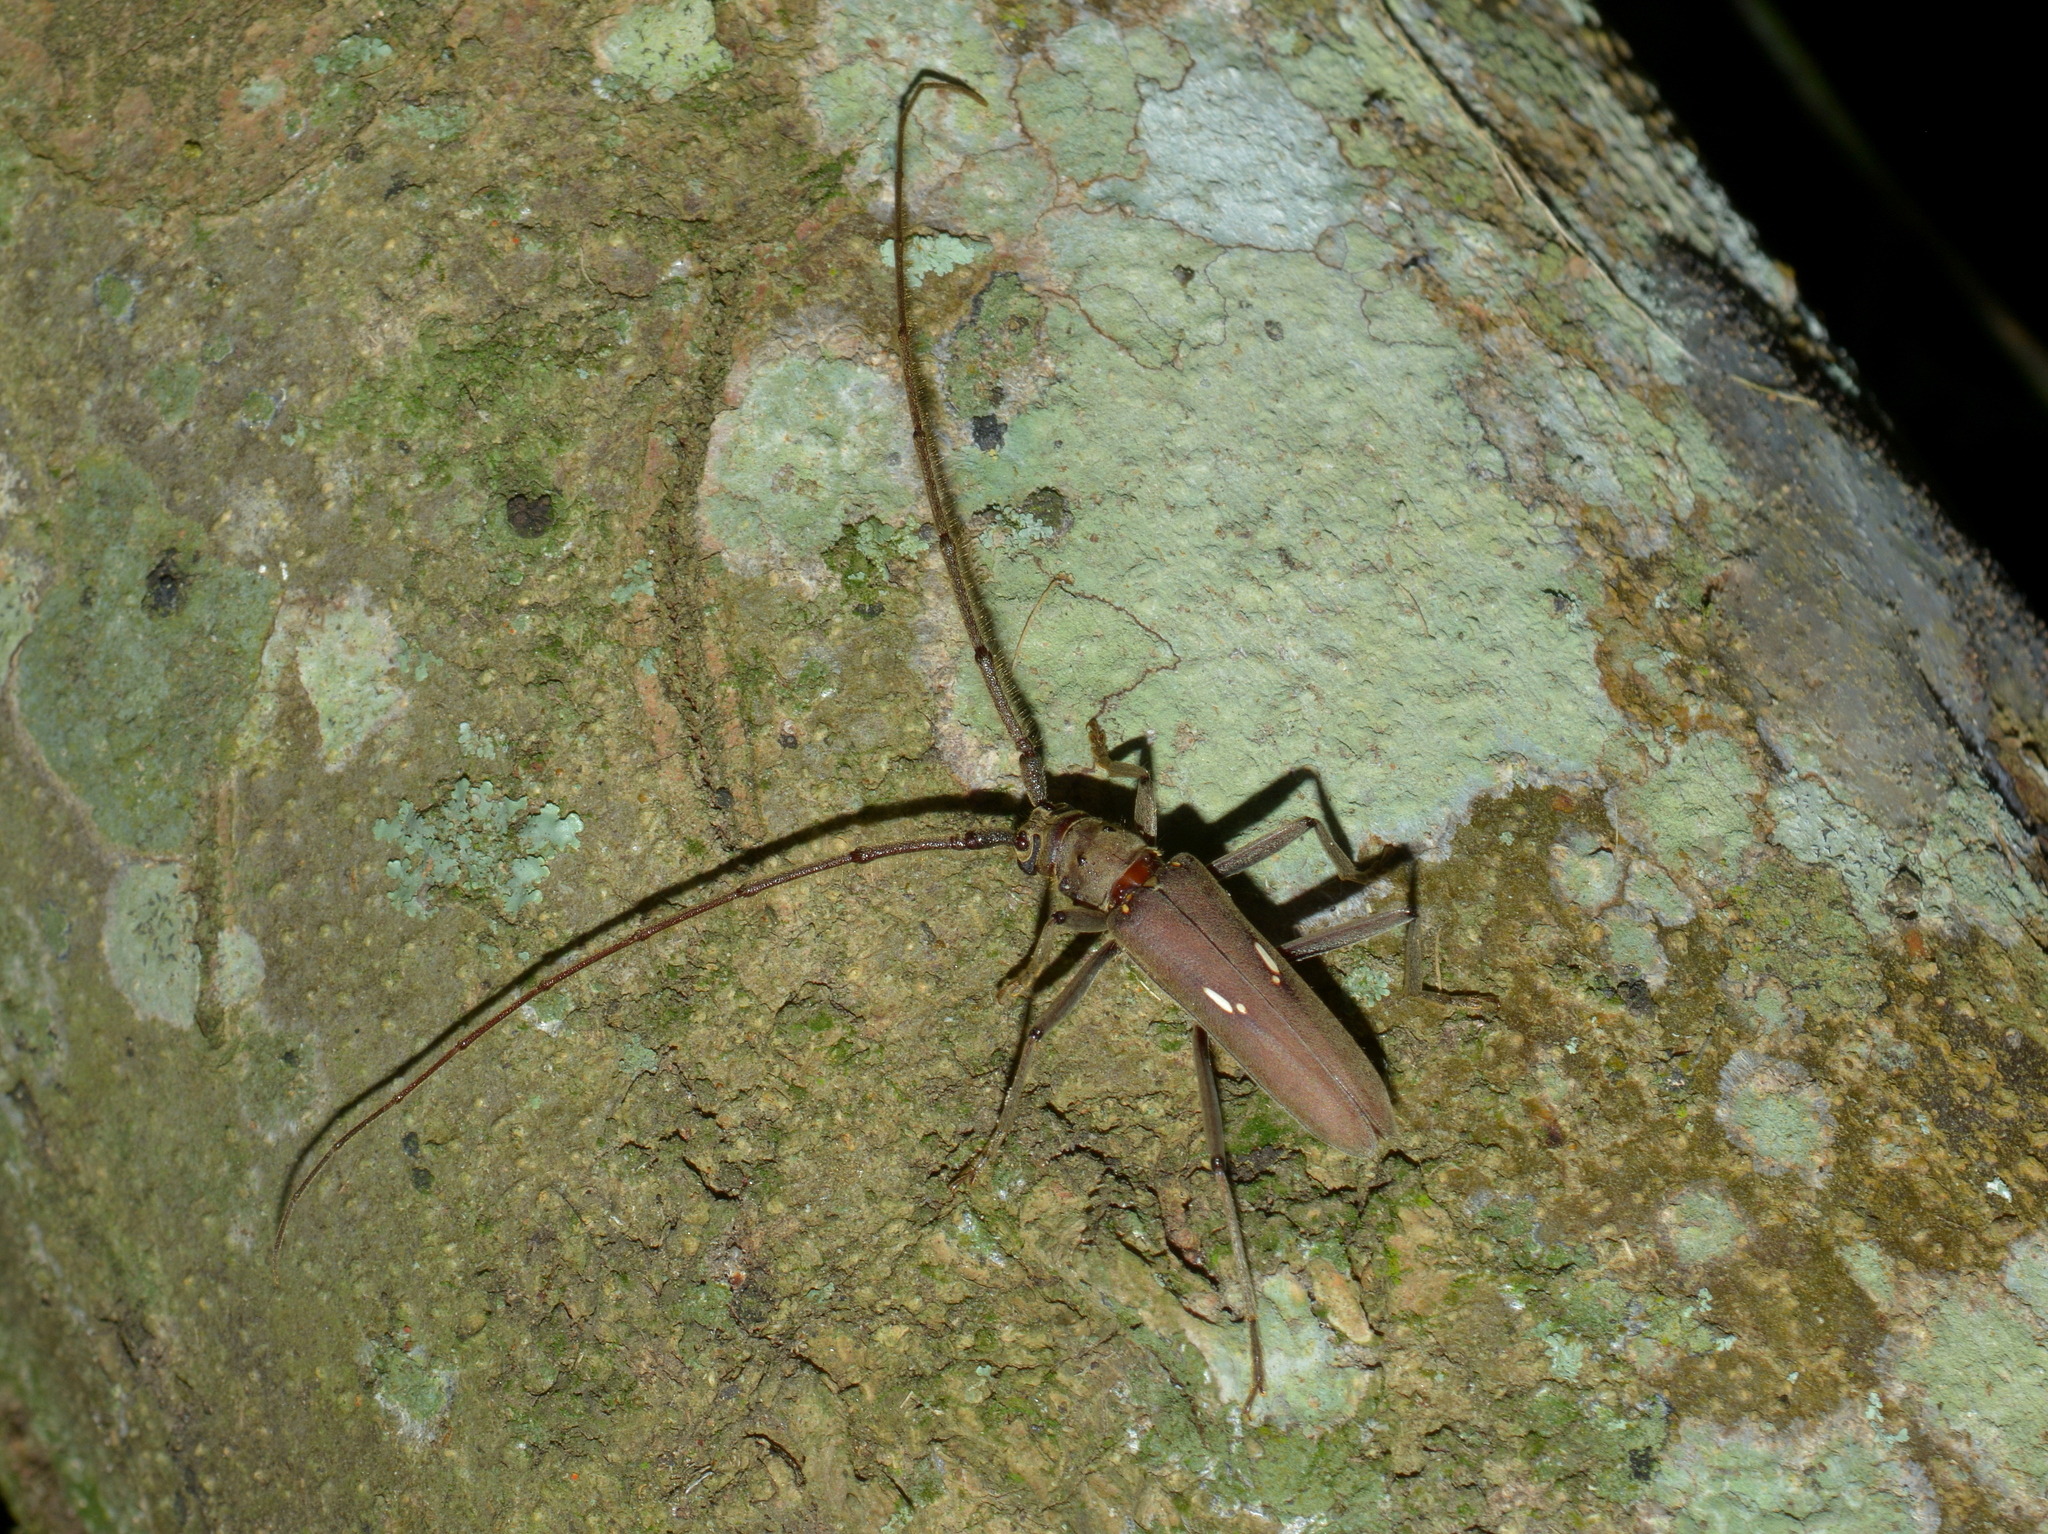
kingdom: Animalia
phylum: Arthropoda
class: Insecta
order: Coleoptera
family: Cerambycidae
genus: Pantomallus
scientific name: Pantomallus morosus
